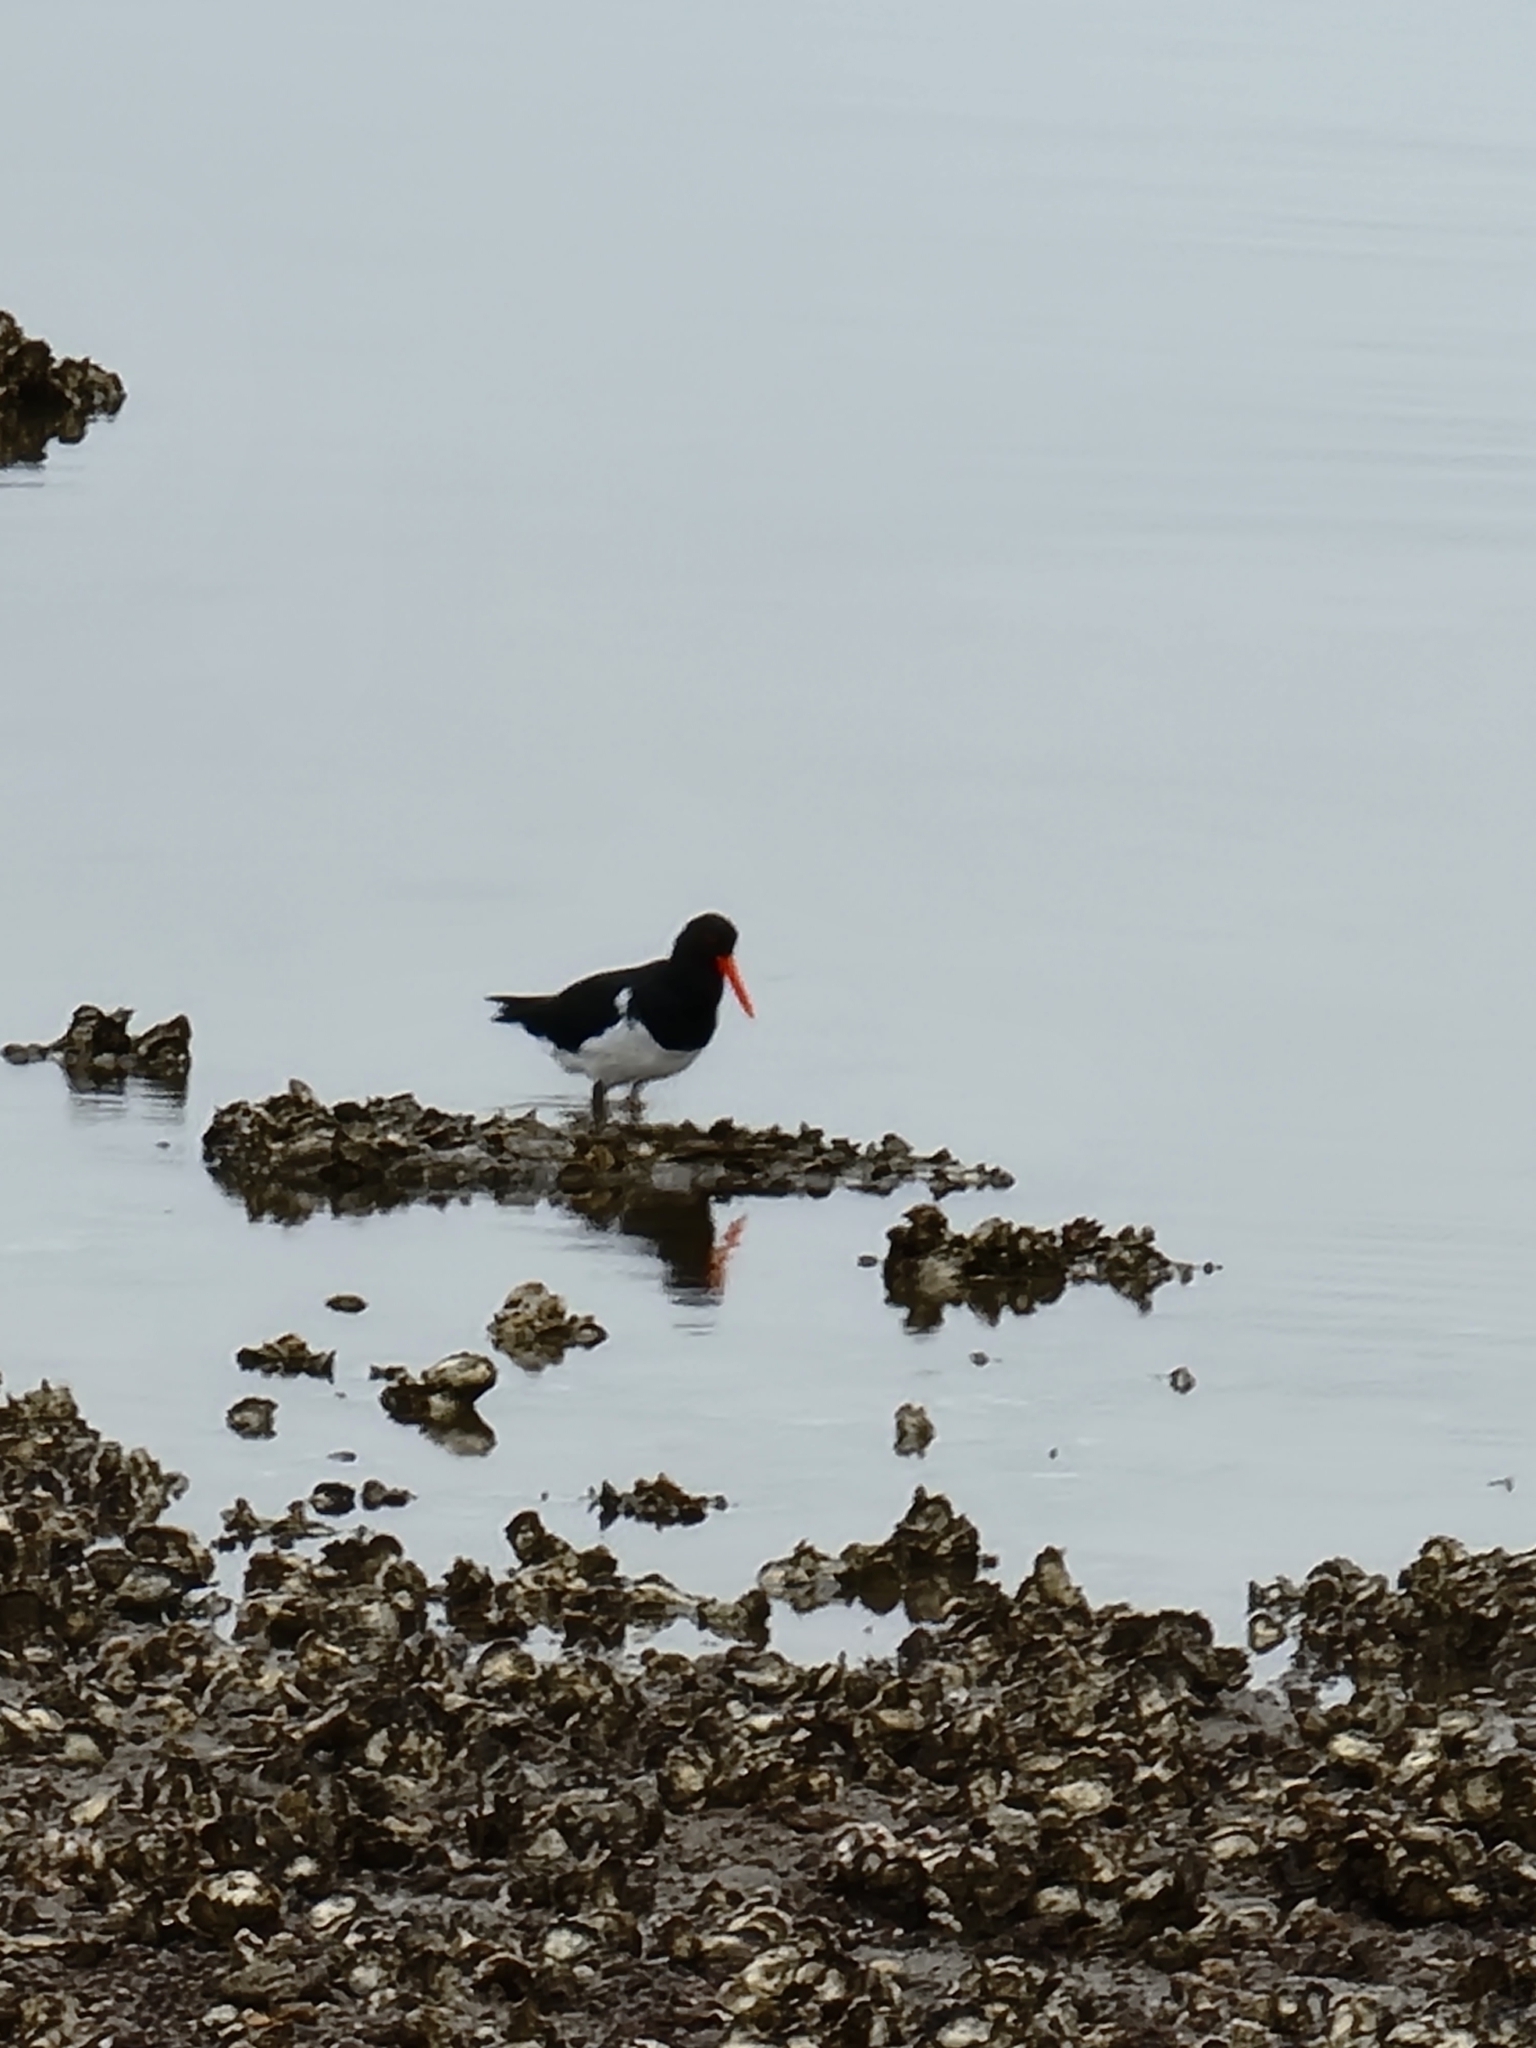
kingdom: Animalia
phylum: Chordata
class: Aves
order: Charadriiformes
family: Haematopodidae
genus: Haematopus
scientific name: Haematopus longirostris
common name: Pied oystercatcher
